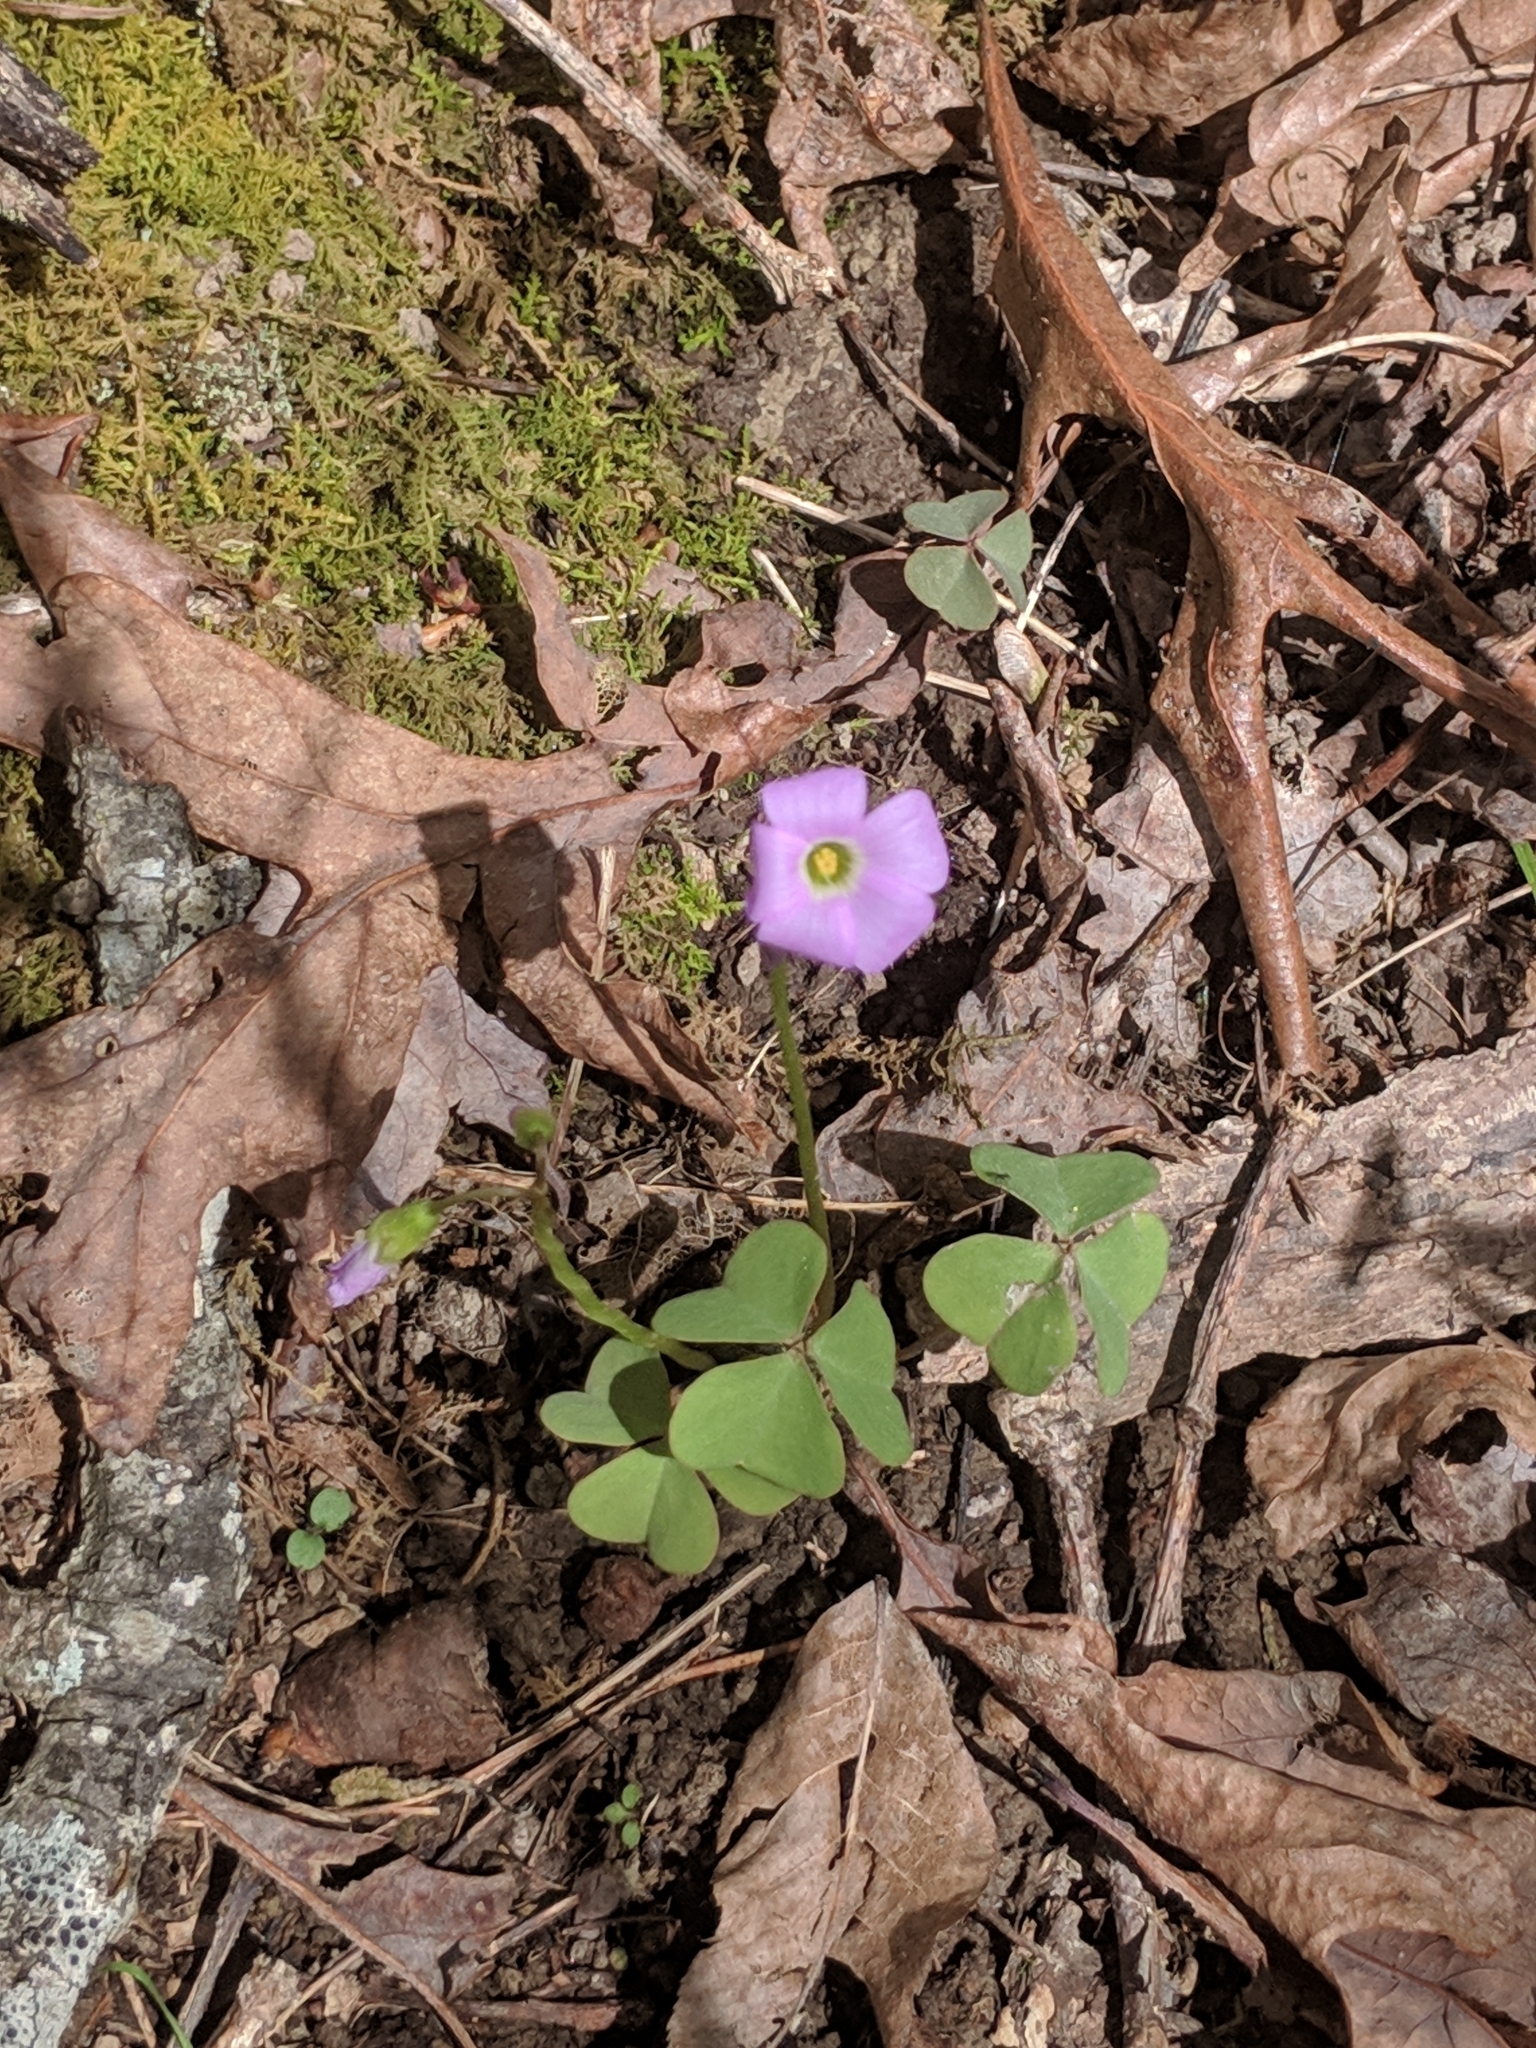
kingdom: Plantae
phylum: Tracheophyta
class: Magnoliopsida
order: Oxalidales
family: Oxalidaceae
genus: Oxalis
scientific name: Oxalis violacea
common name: Violet wood-sorrel
